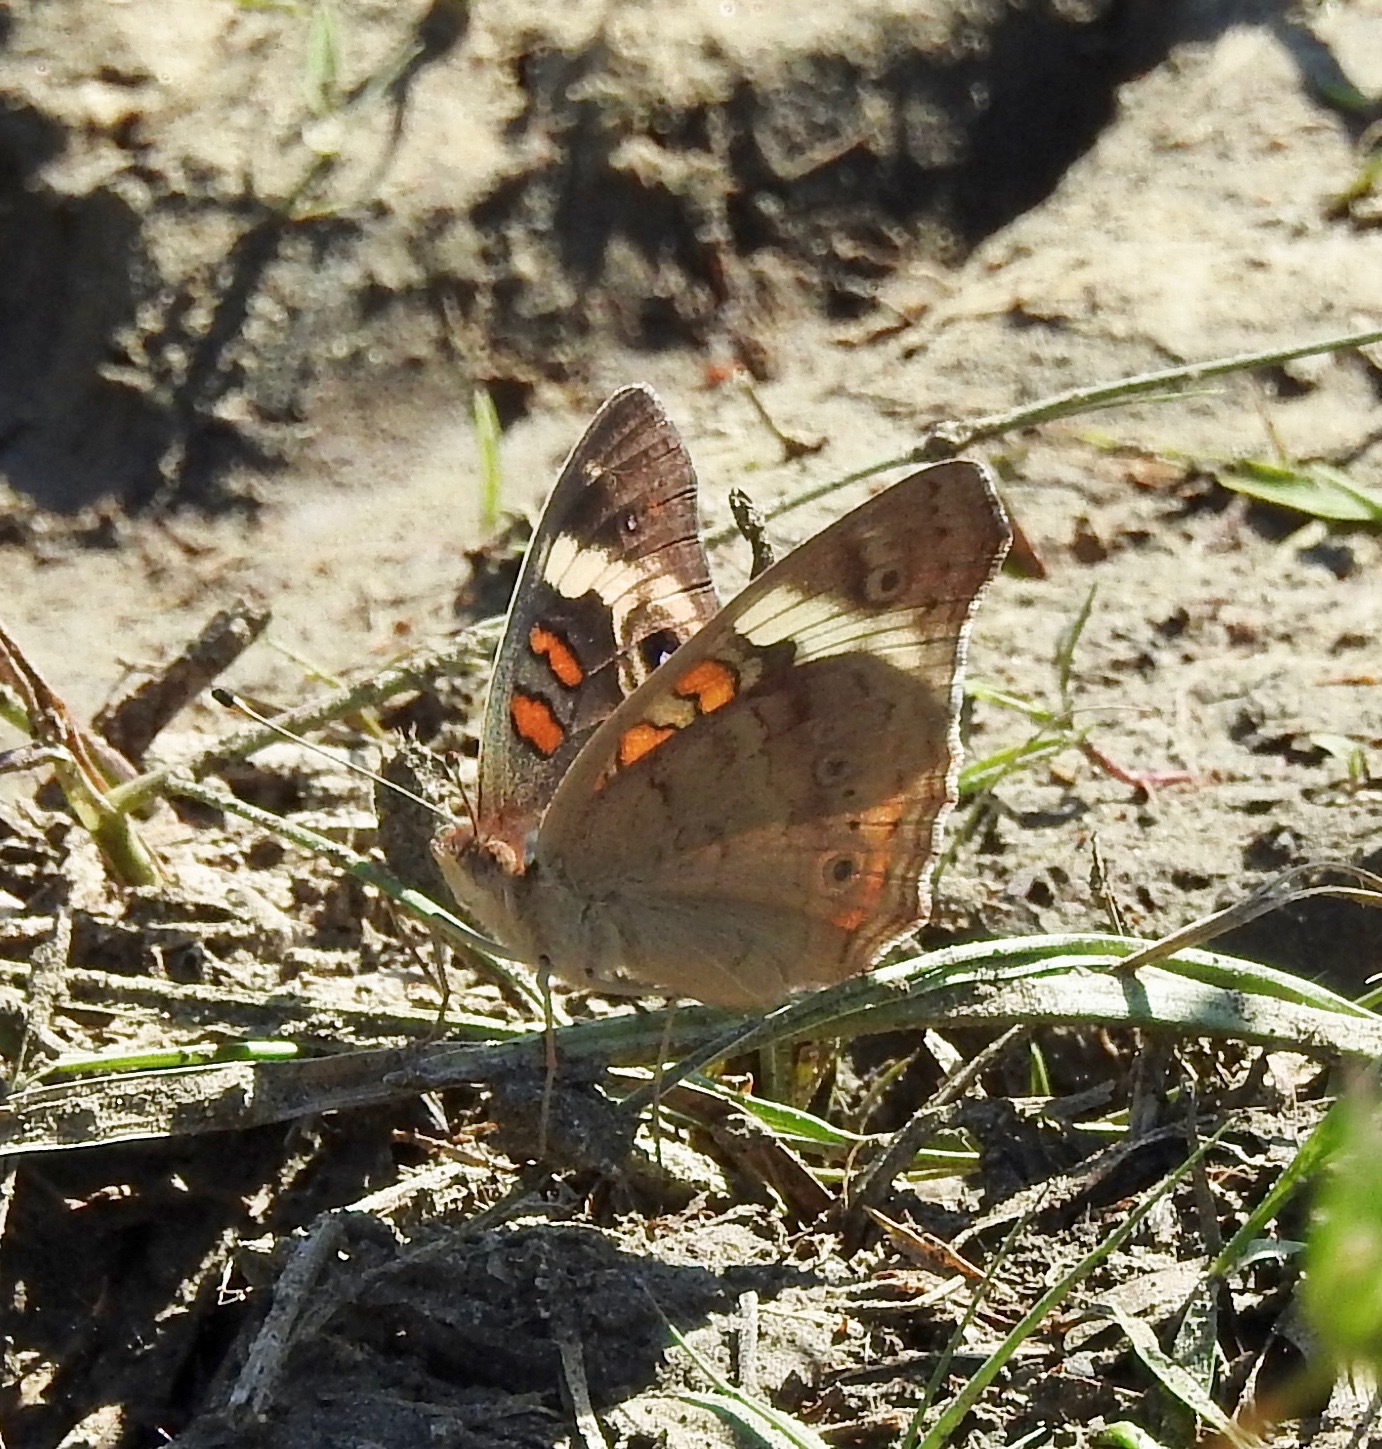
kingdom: Animalia
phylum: Arthropoda
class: Insecta
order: Lepidoptera
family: Nymphalidae
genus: Junonia
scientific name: Junonia coenia
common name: Common buckeye
